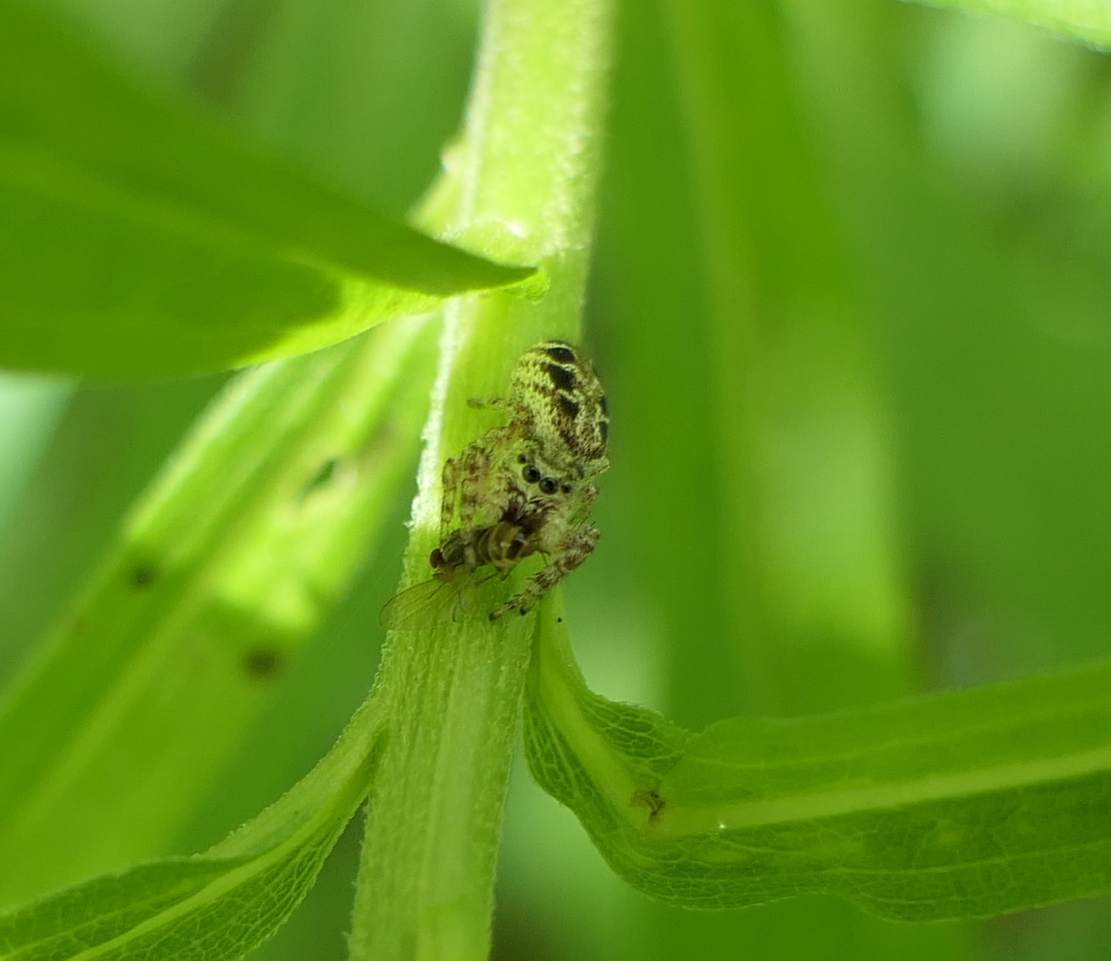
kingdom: Animalia
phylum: Arthropoda
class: Arachnida
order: Araneae
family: Salticidae
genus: Pelegrina
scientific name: Pelegrina proterva
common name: Common white-cheeked jumping spider
